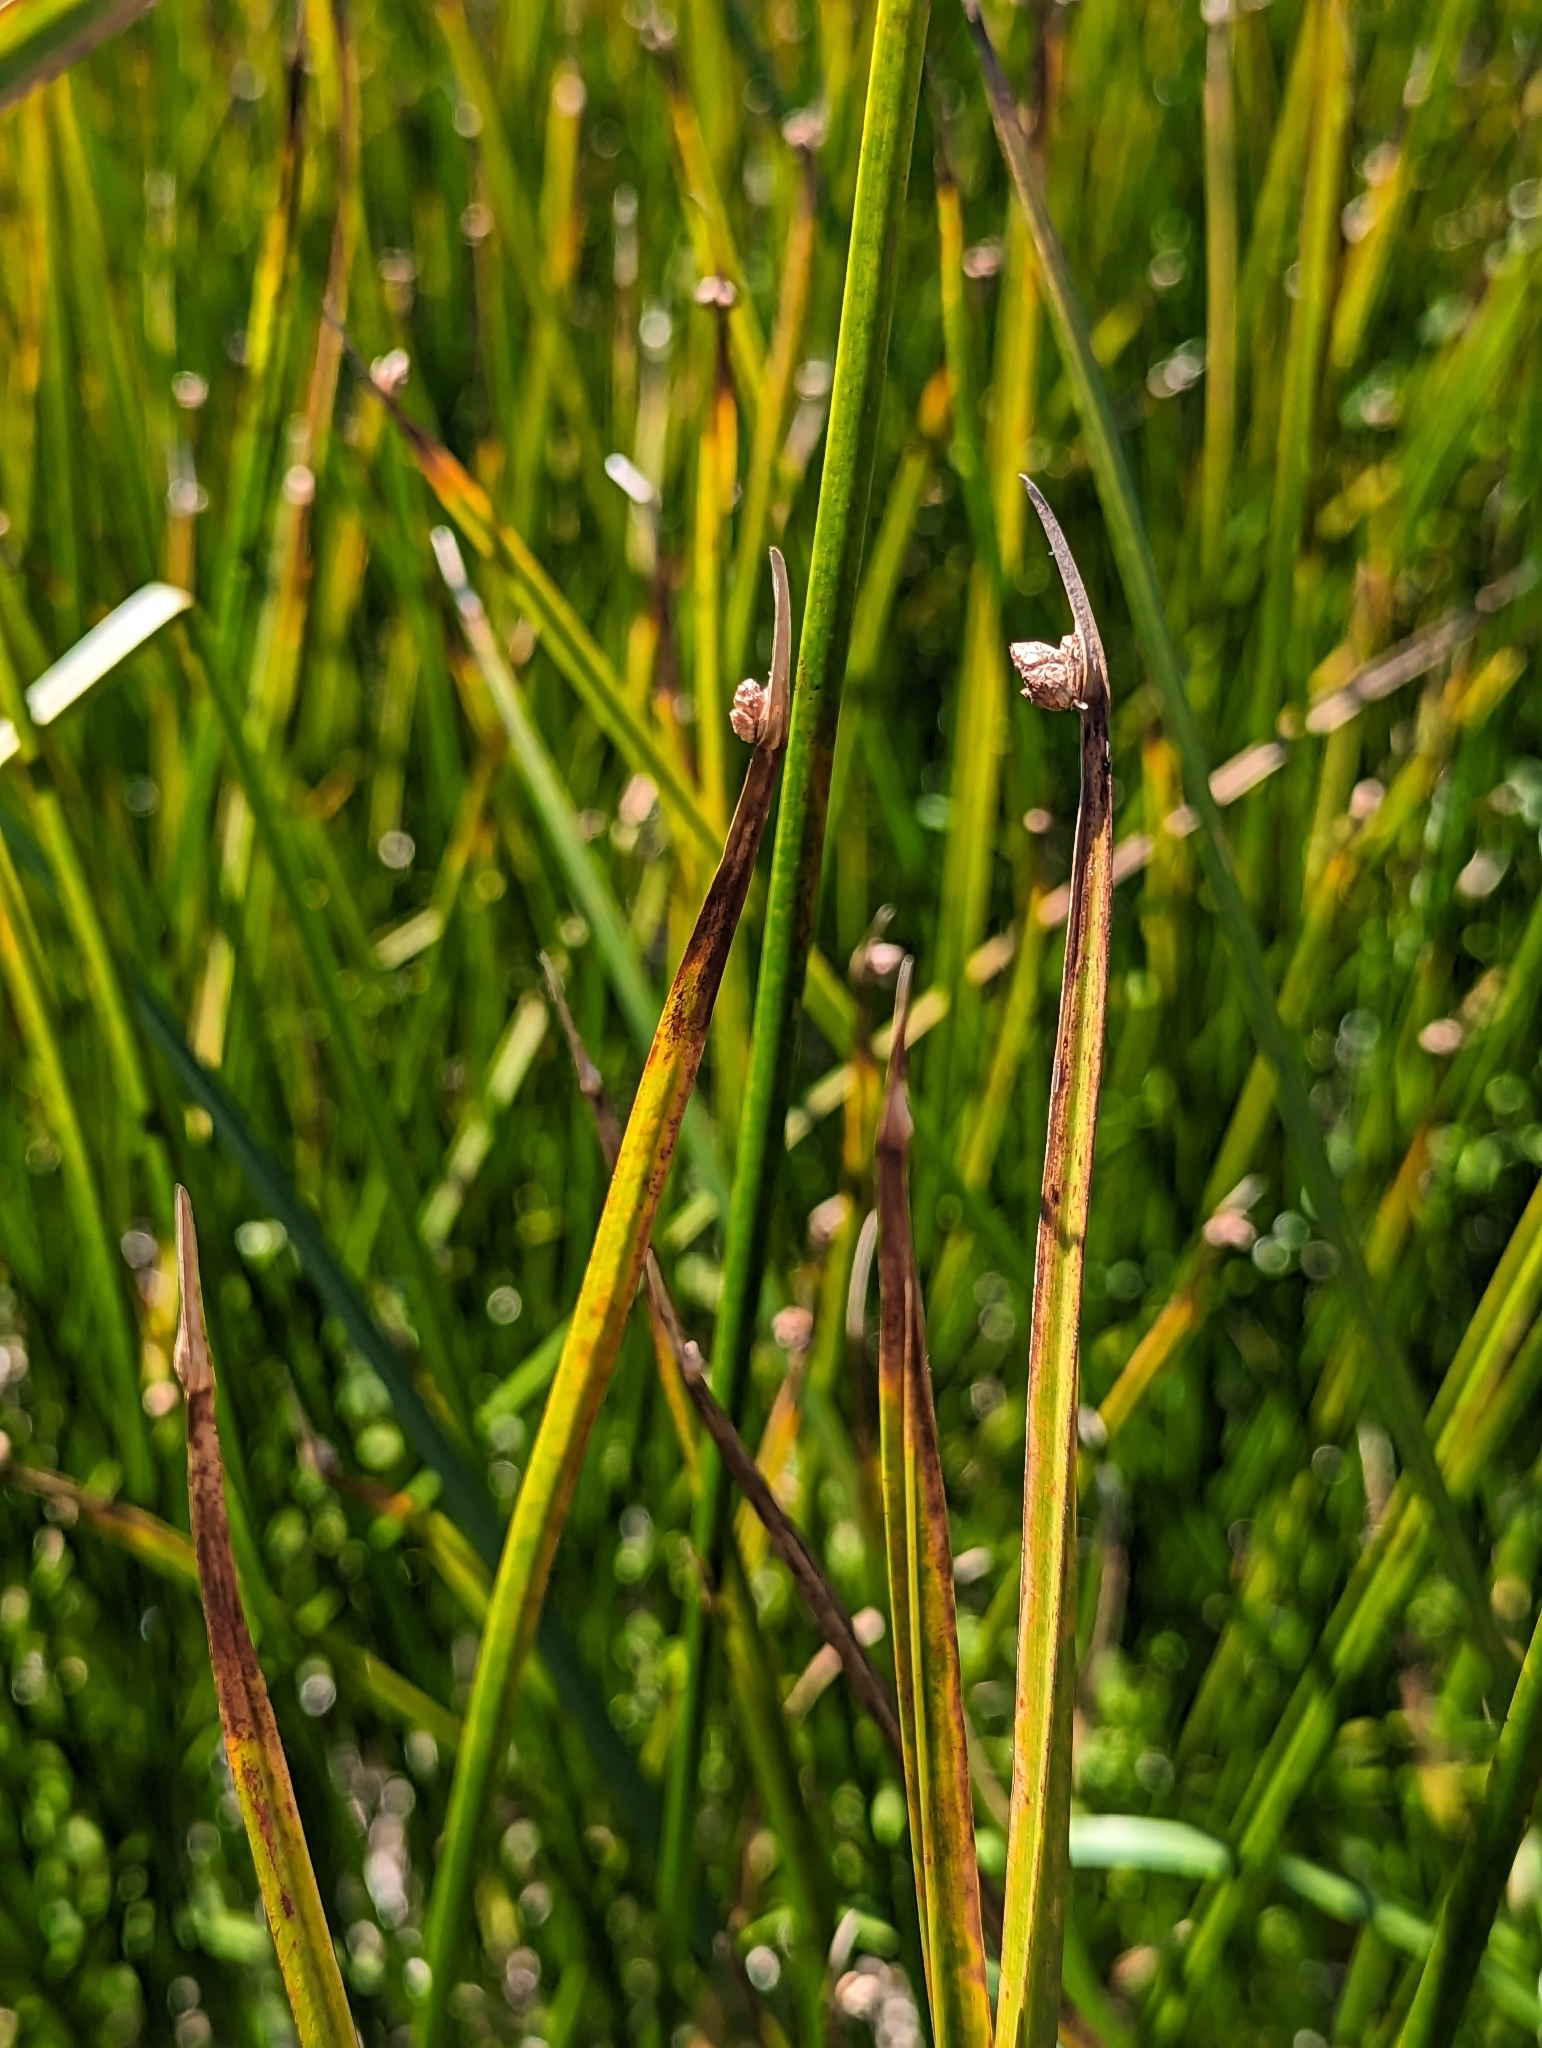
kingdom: Plantae
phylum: Tracheophyta
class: Liliopsida
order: Poales
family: Cyperaceae
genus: Schoenoplectus
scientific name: Schoenoplectus americanus
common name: American three-square bulrush
